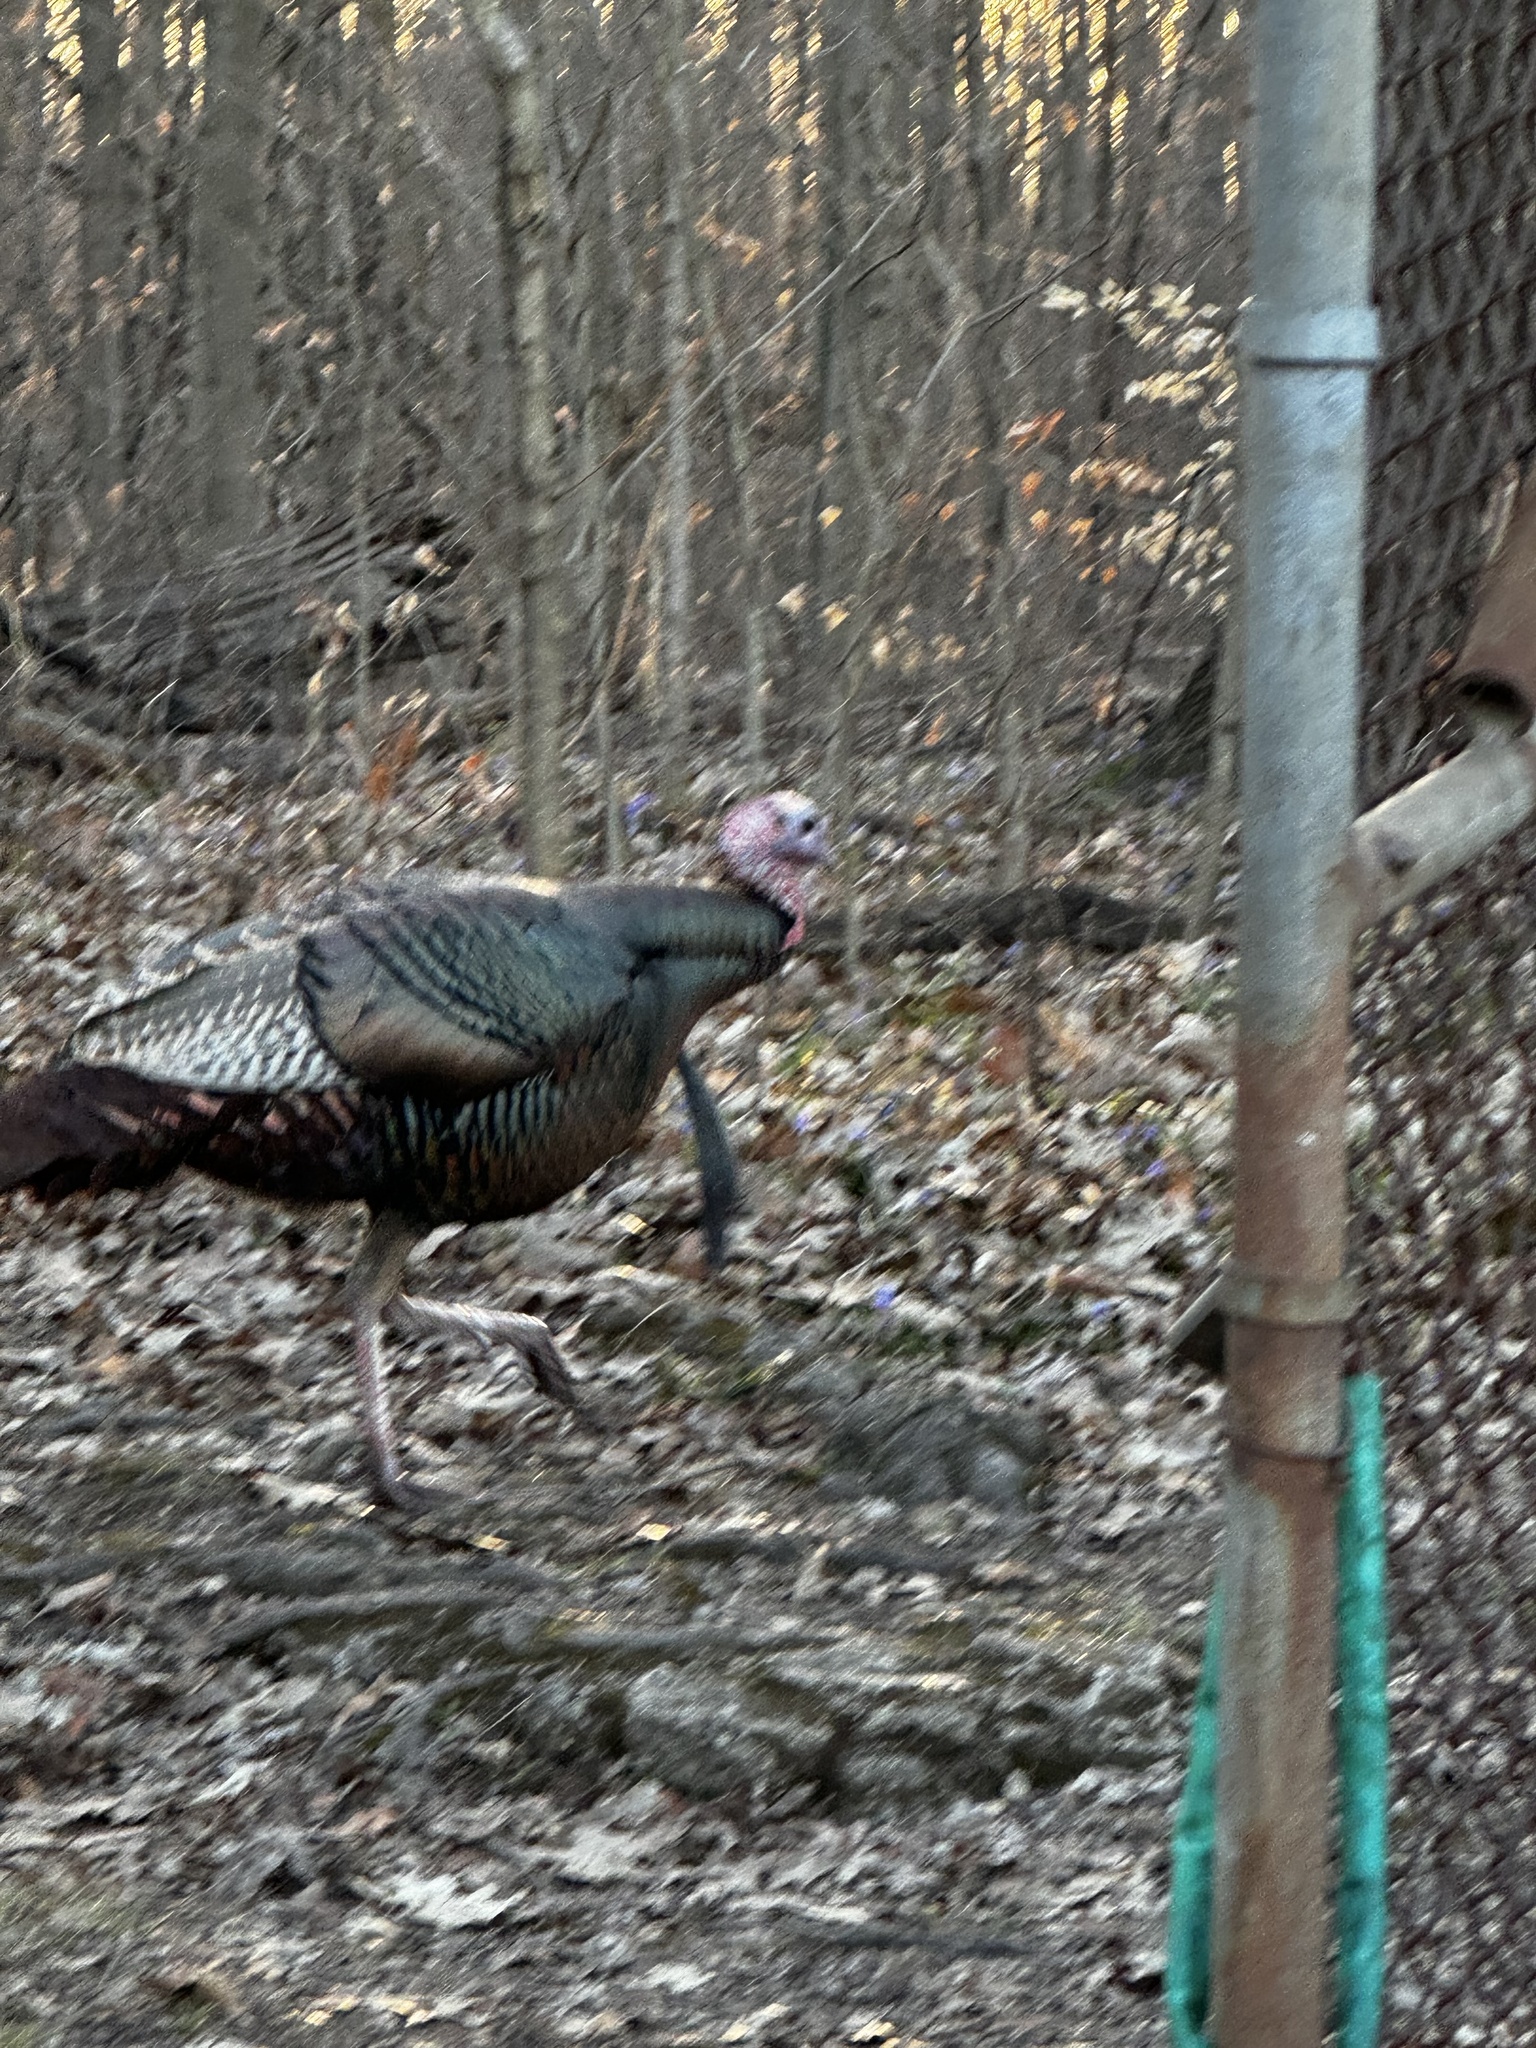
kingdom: Animalia
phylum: Chordata
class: Aves
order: Galliformes
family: Phasianidae
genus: Meleagris
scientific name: Meleagris gallopavo
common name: Wild turkey
